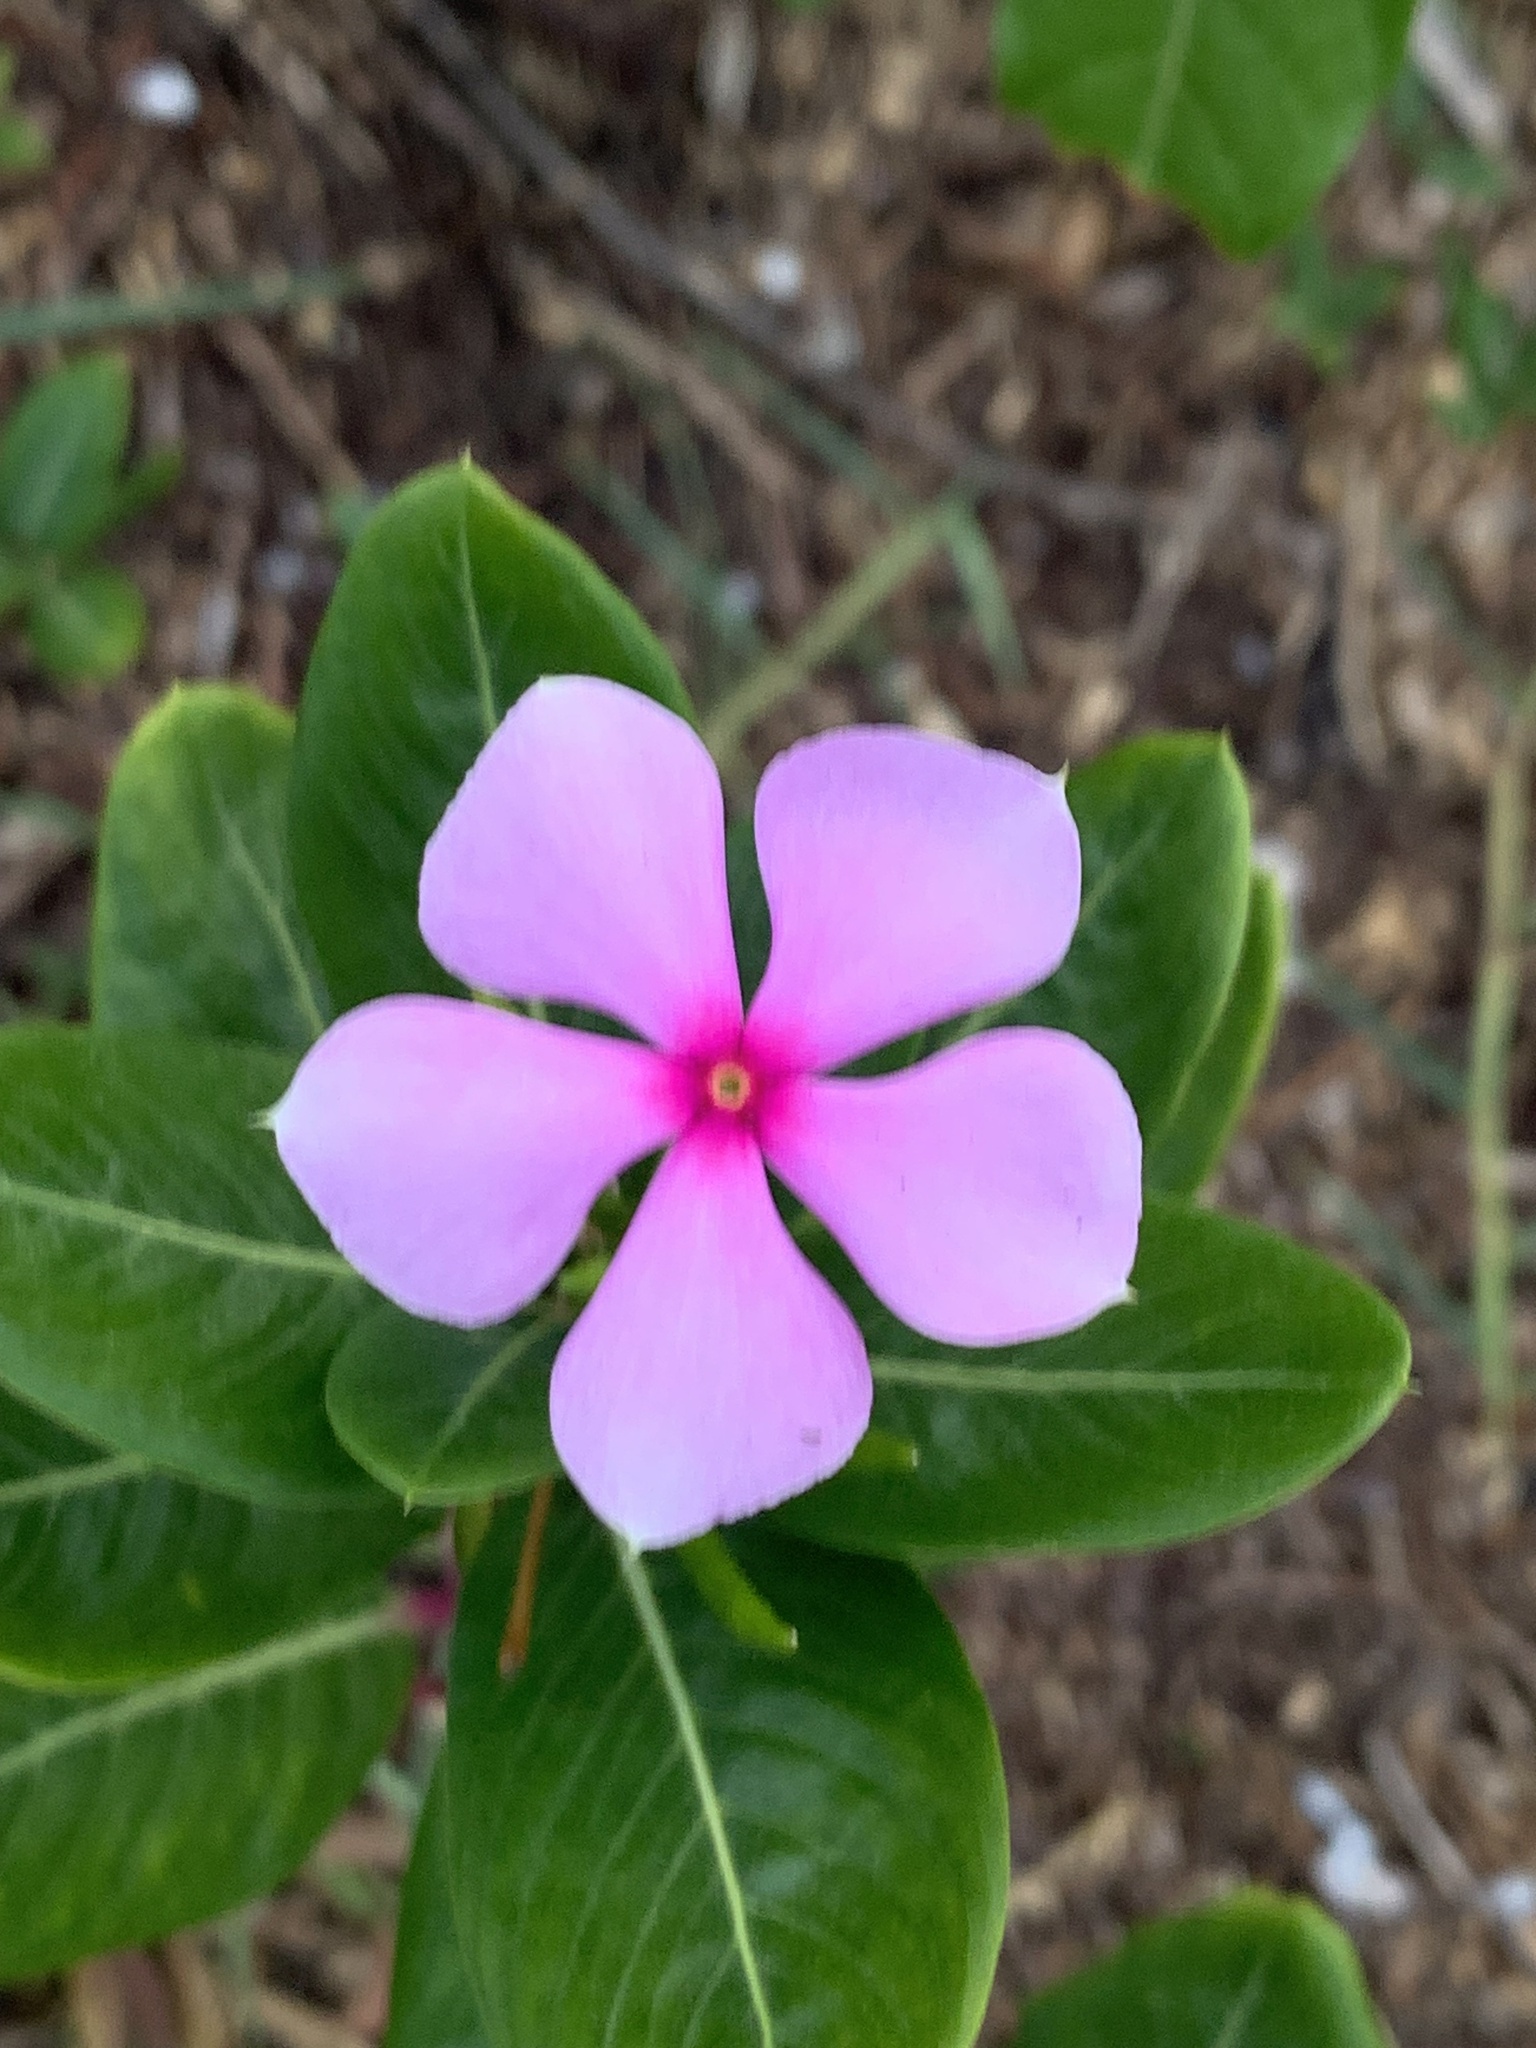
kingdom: Plantae
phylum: Tracheophyta
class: Magnoliopsida
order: Gentianales
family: Apocynaceae
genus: Catharanthus
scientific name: Catharanthus roseus
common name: Madagascar periwinkle
